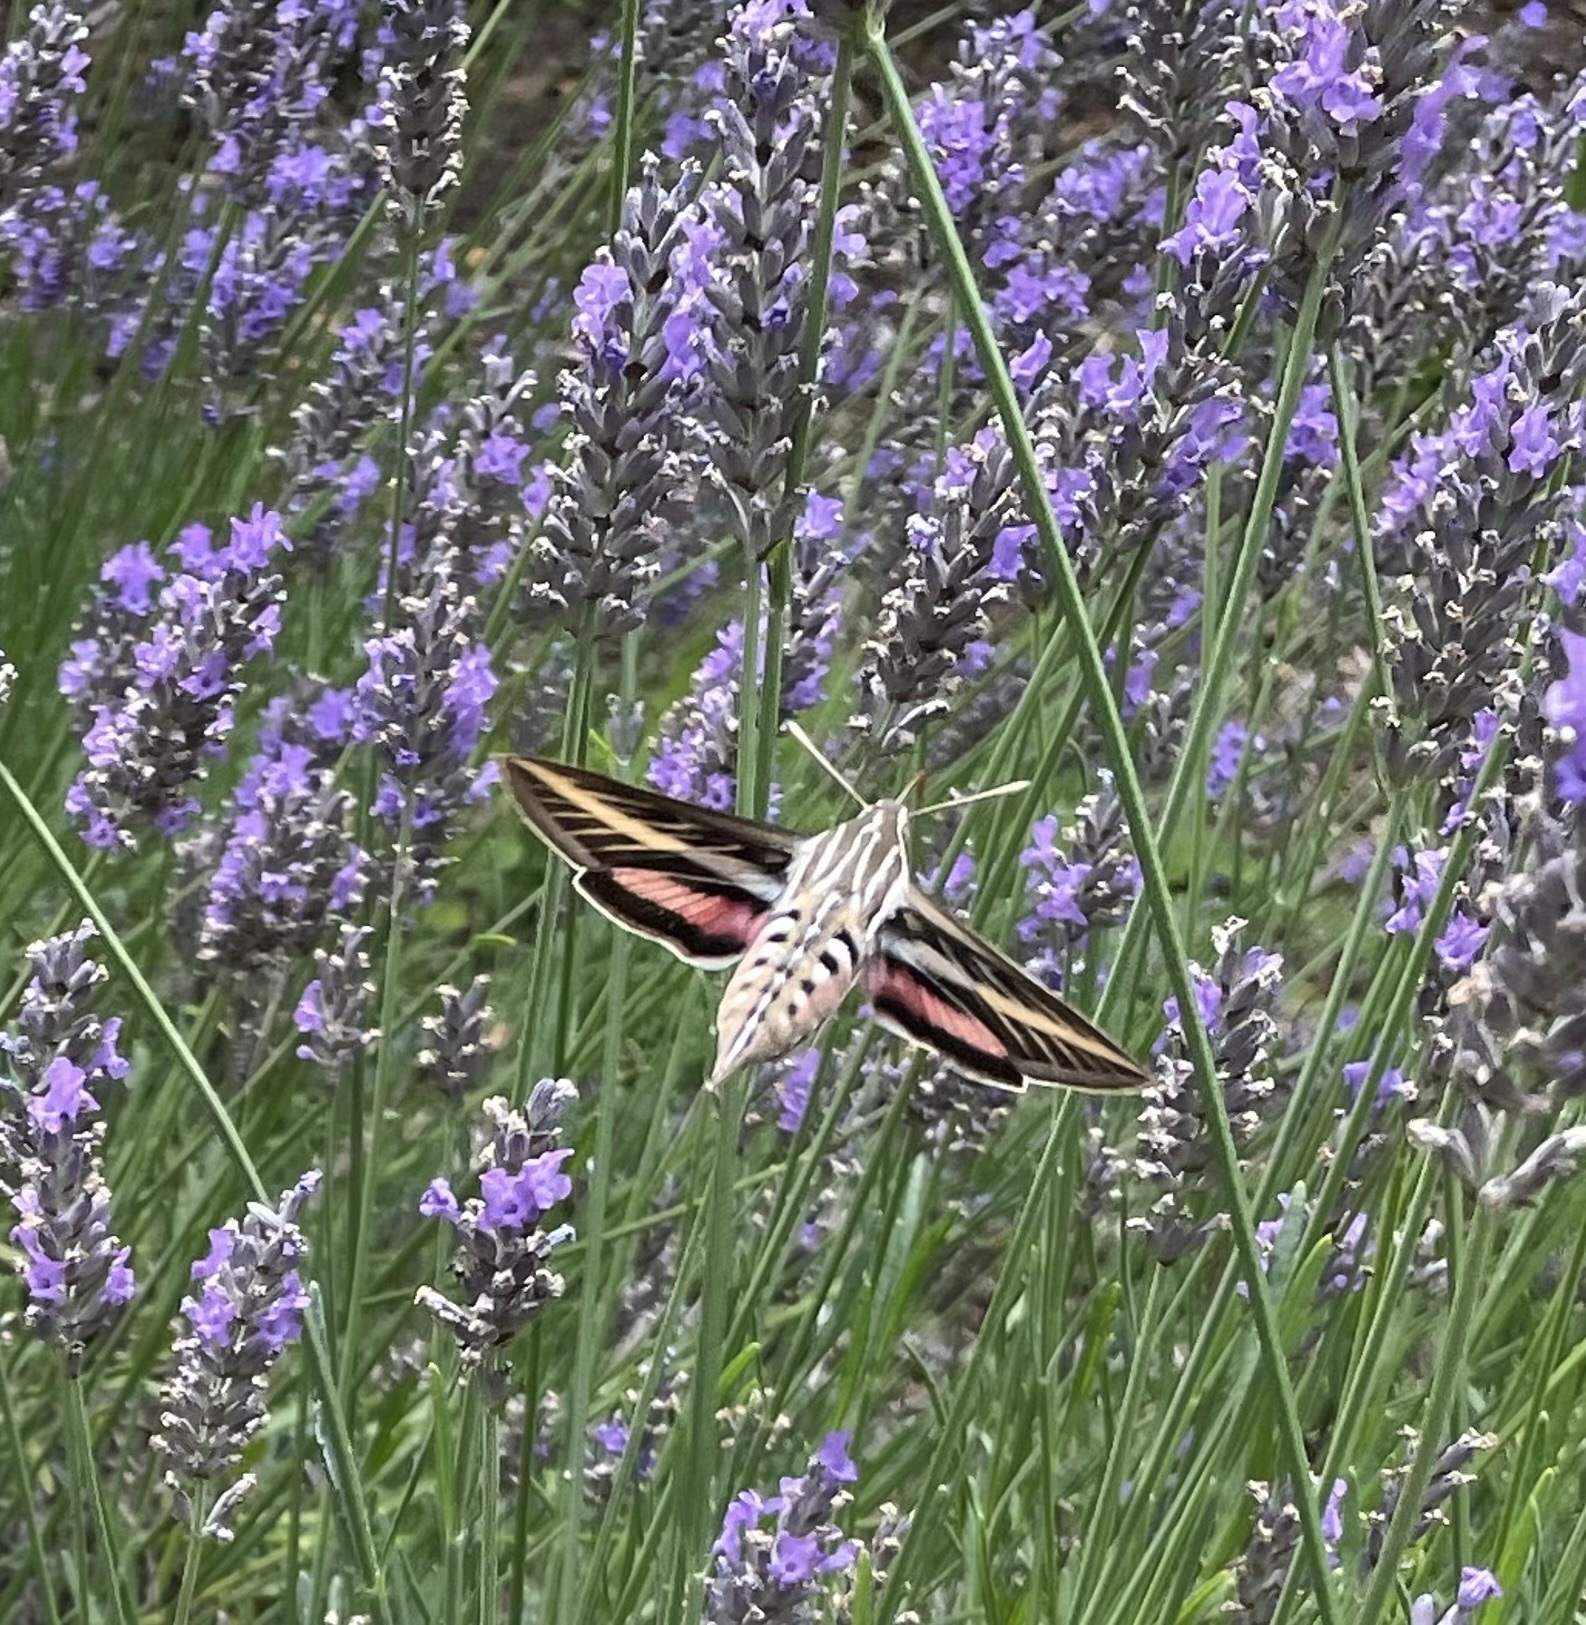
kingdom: Animalia
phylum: Arthropoda
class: Insecta
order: Lepidoptera
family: Sphingidae
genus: Hyles
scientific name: Hyles lineata
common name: White-lined sphinx
